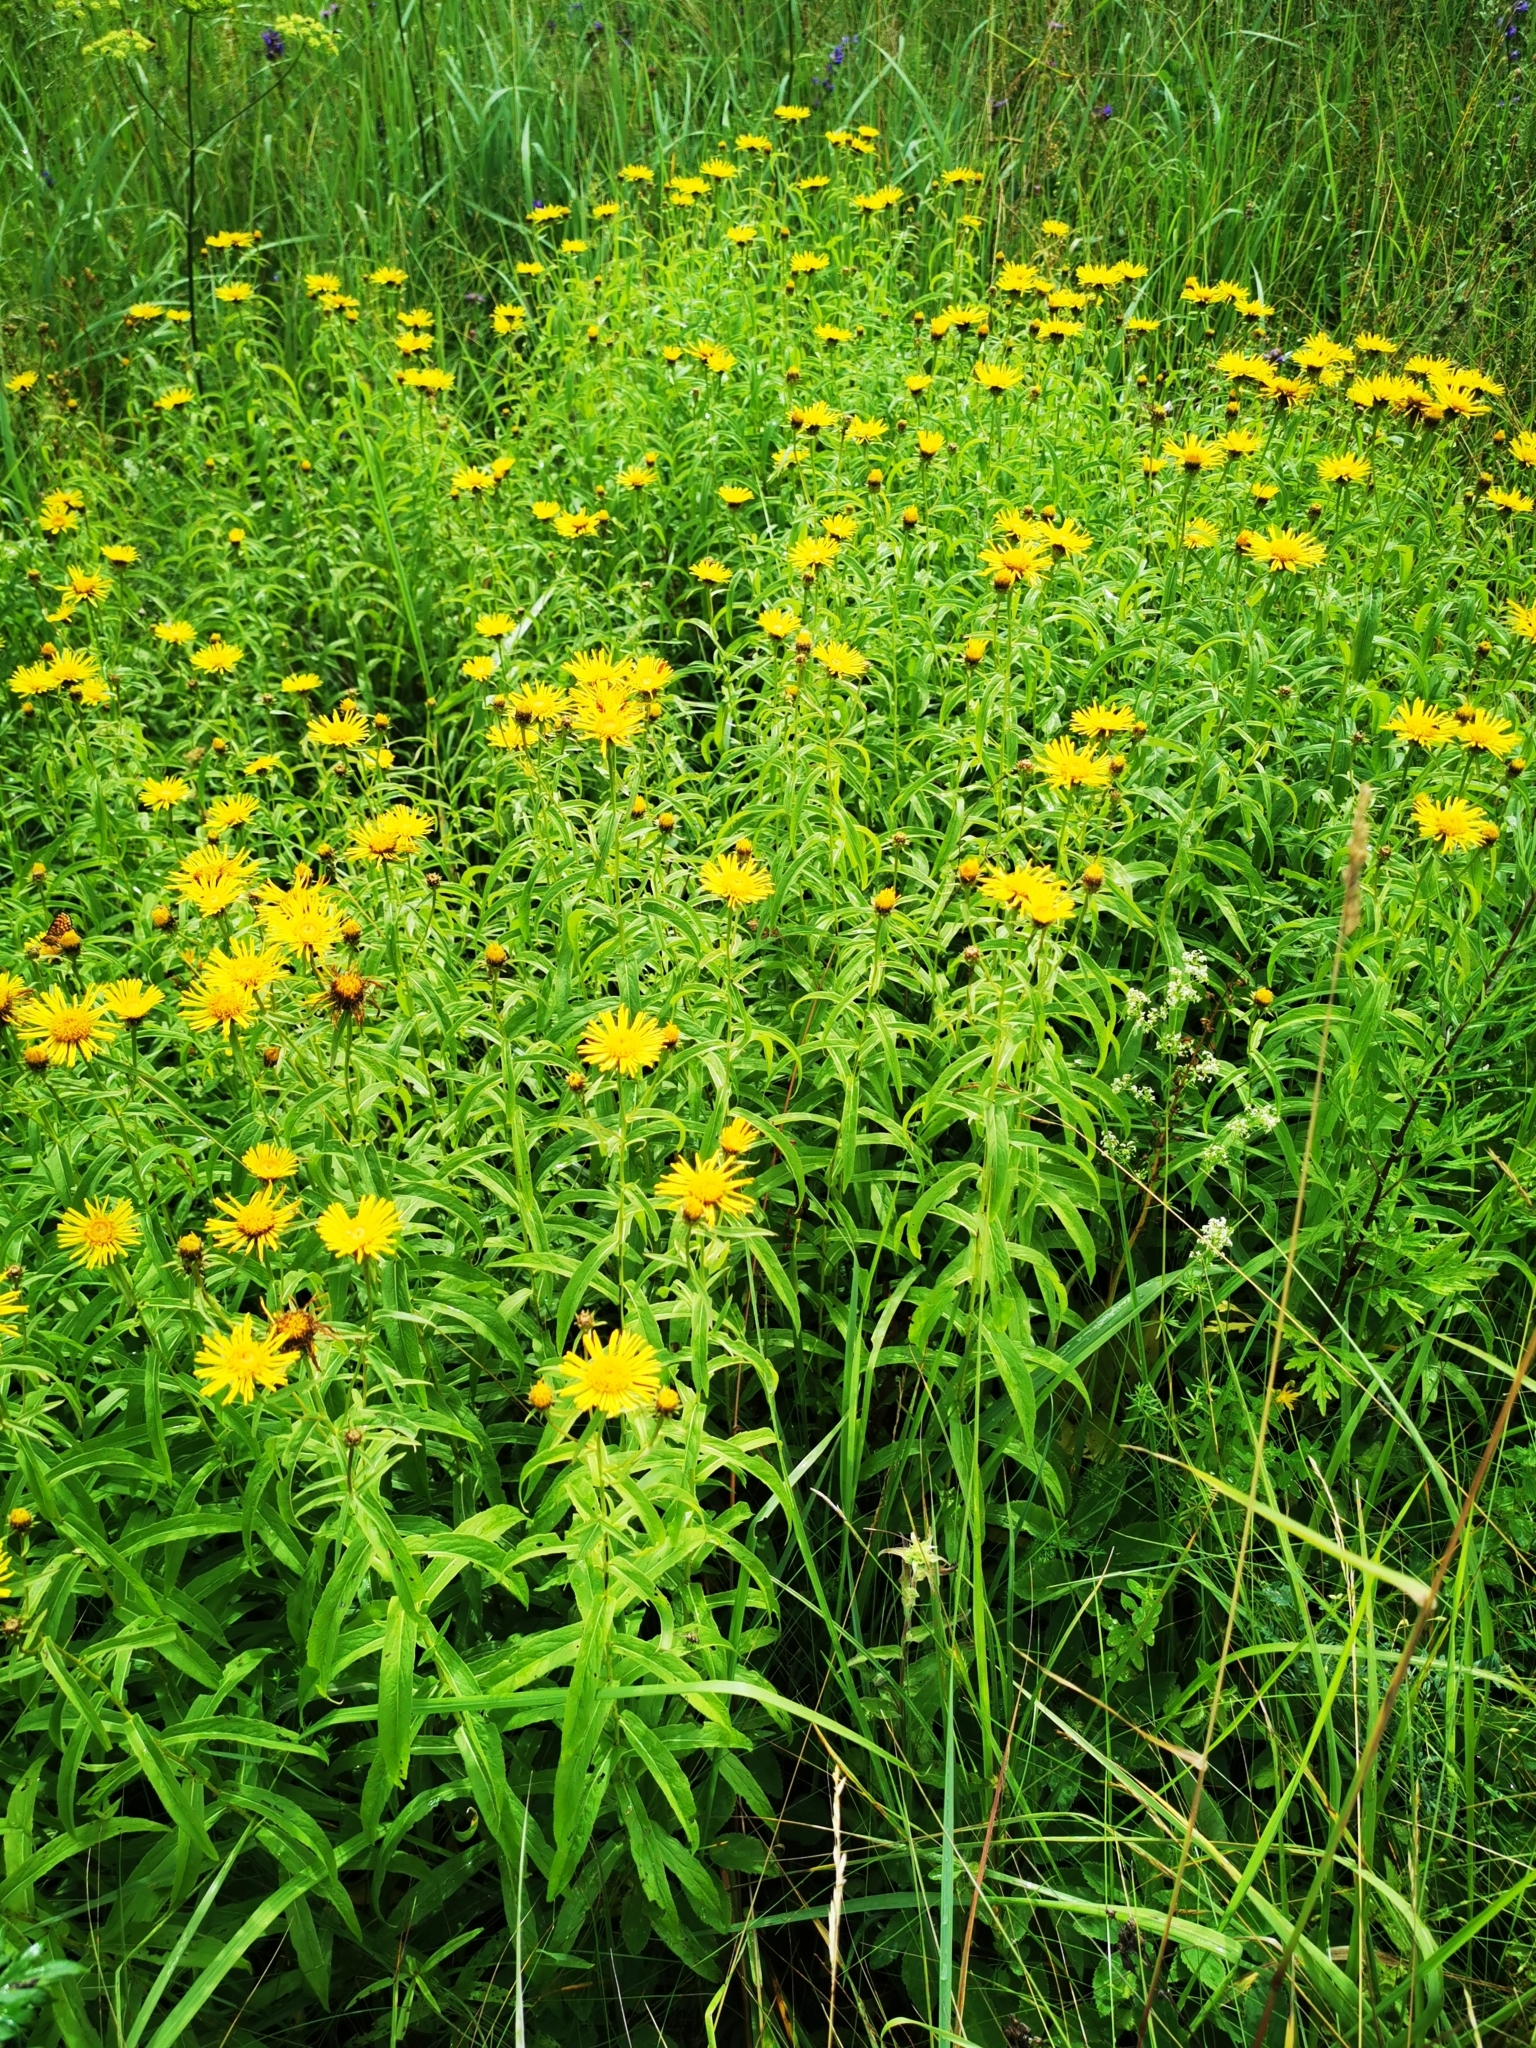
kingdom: Plantae
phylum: Tracheophyta
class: Magnoliopsida
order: Asterales
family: Asteraceae
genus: Pentanema
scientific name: Pentanema salicinum
